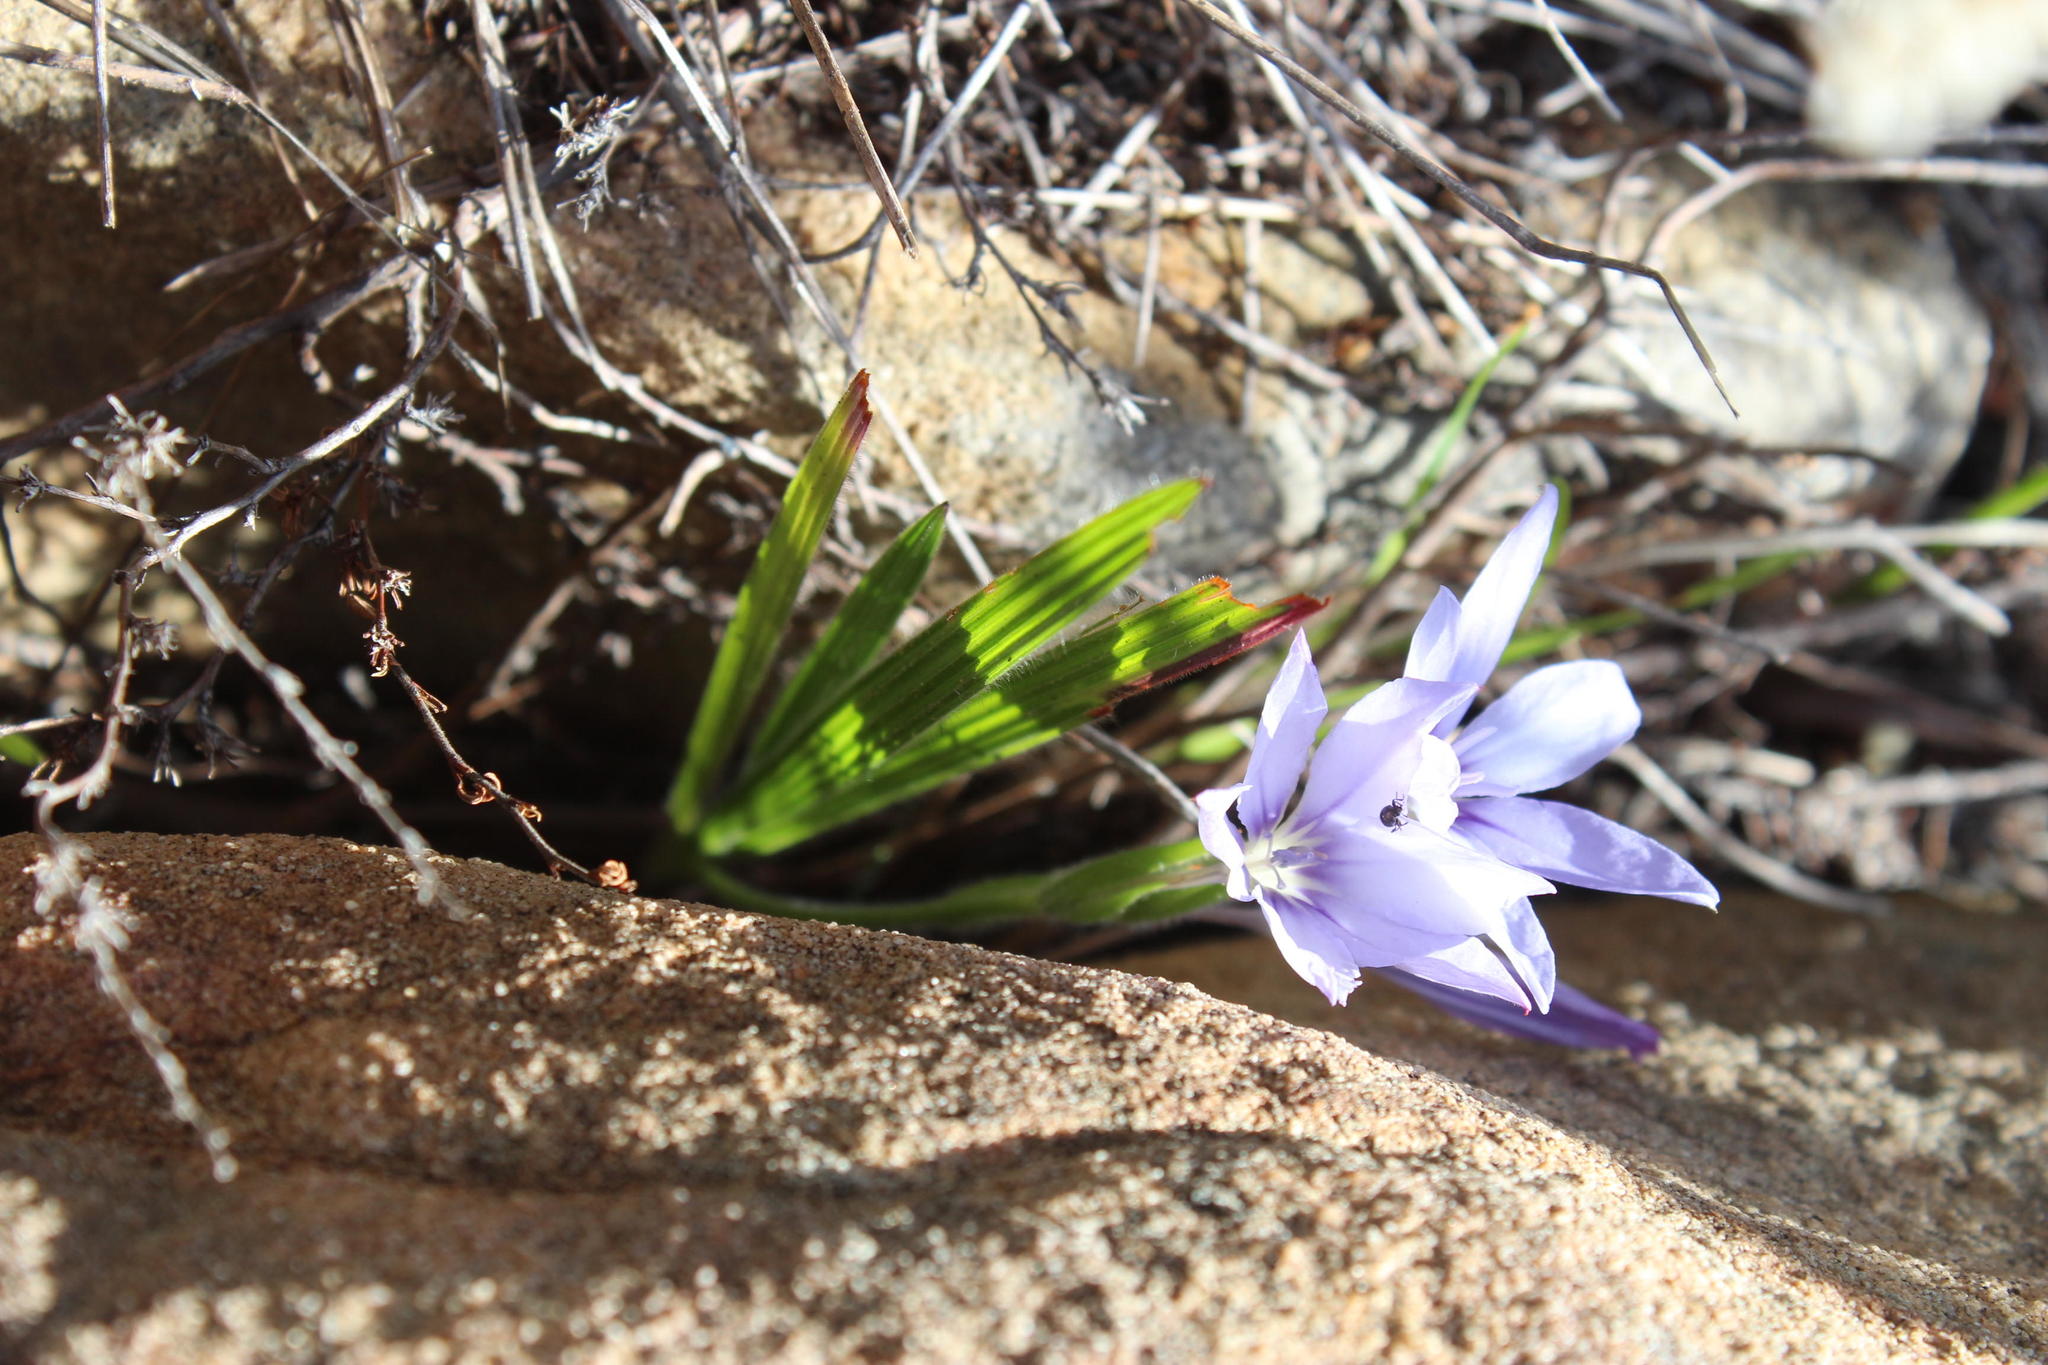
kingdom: Plantae
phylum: Tracheophyta
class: Liliopsida
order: Asparagales
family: Iridaceae
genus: Babiana
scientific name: Babiana villosula
